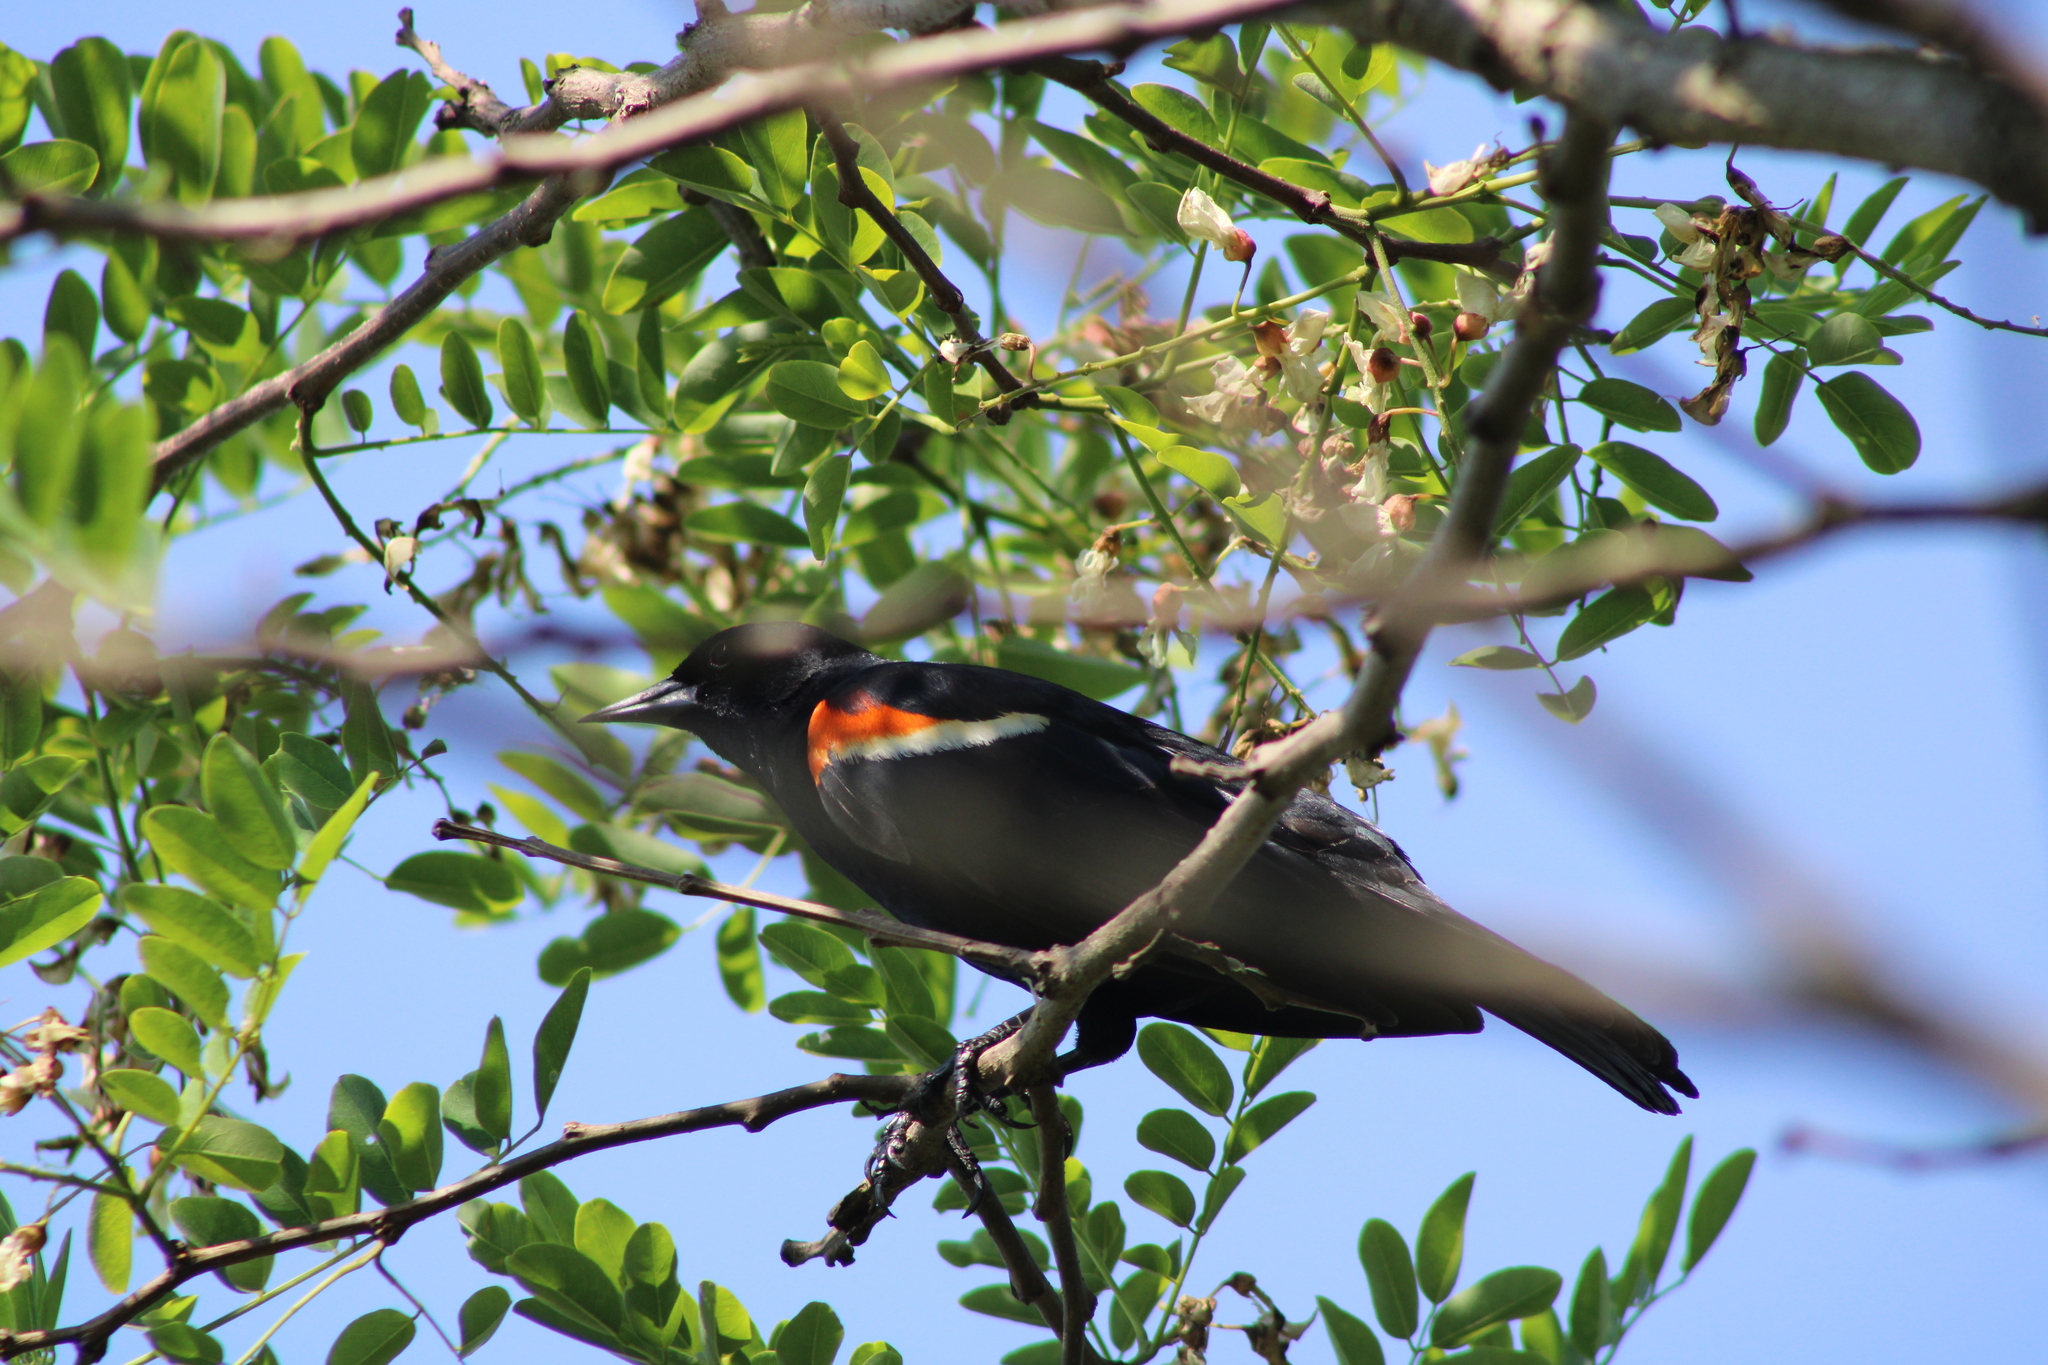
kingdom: Animalia
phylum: Chordata
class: Aves
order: Passeriformes
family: Icteridae
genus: Agelaius
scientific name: Agelaius phoeniceus
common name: Red-winged blackbird
